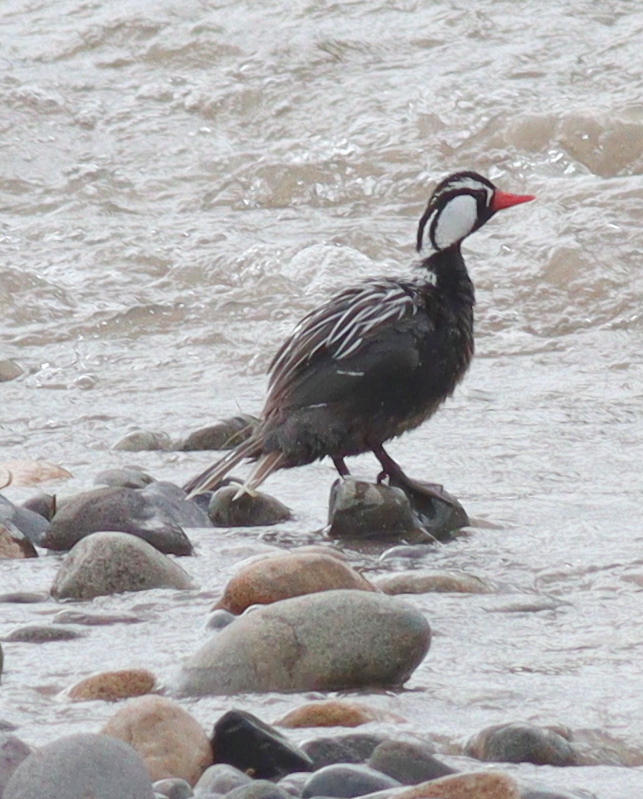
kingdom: Animalia
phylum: Chordata
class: Aves
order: Anseriformes
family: Anatidae
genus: Merganetta
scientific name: Merganetta armata
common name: Torrent duck
